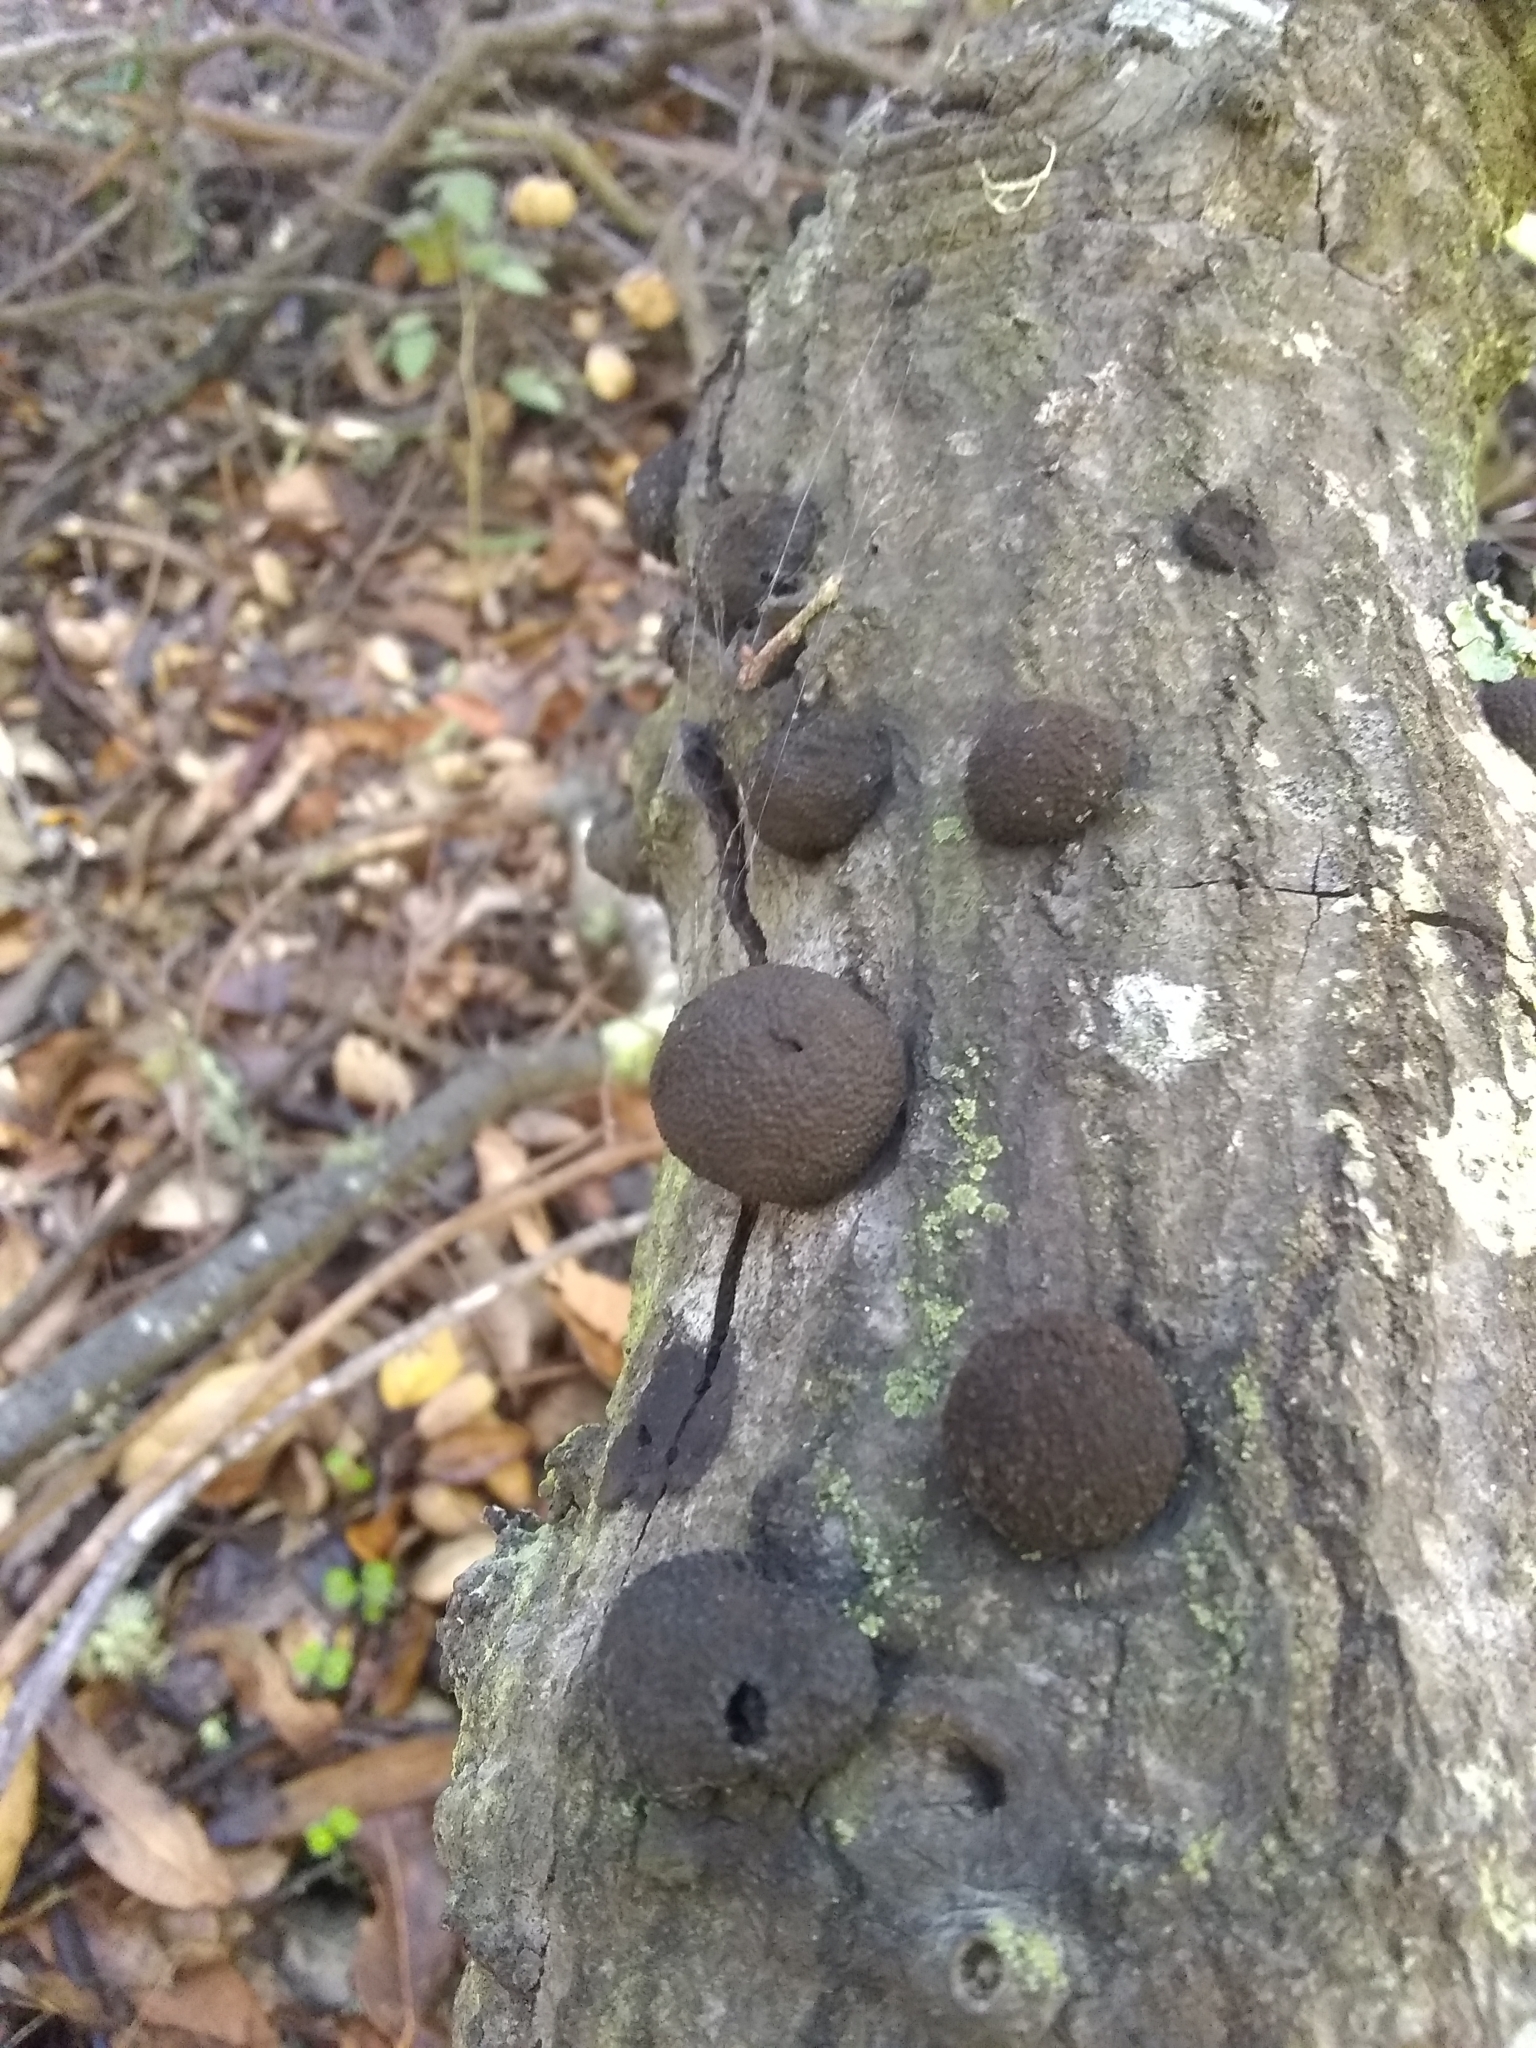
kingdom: Fungi
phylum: Ascomycota
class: Sordariomycetes
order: Xylariales
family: Hypoxylaceae
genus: Annulohypoxylon
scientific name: Annulohypoxylon thouarsianum
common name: Cramp balls
